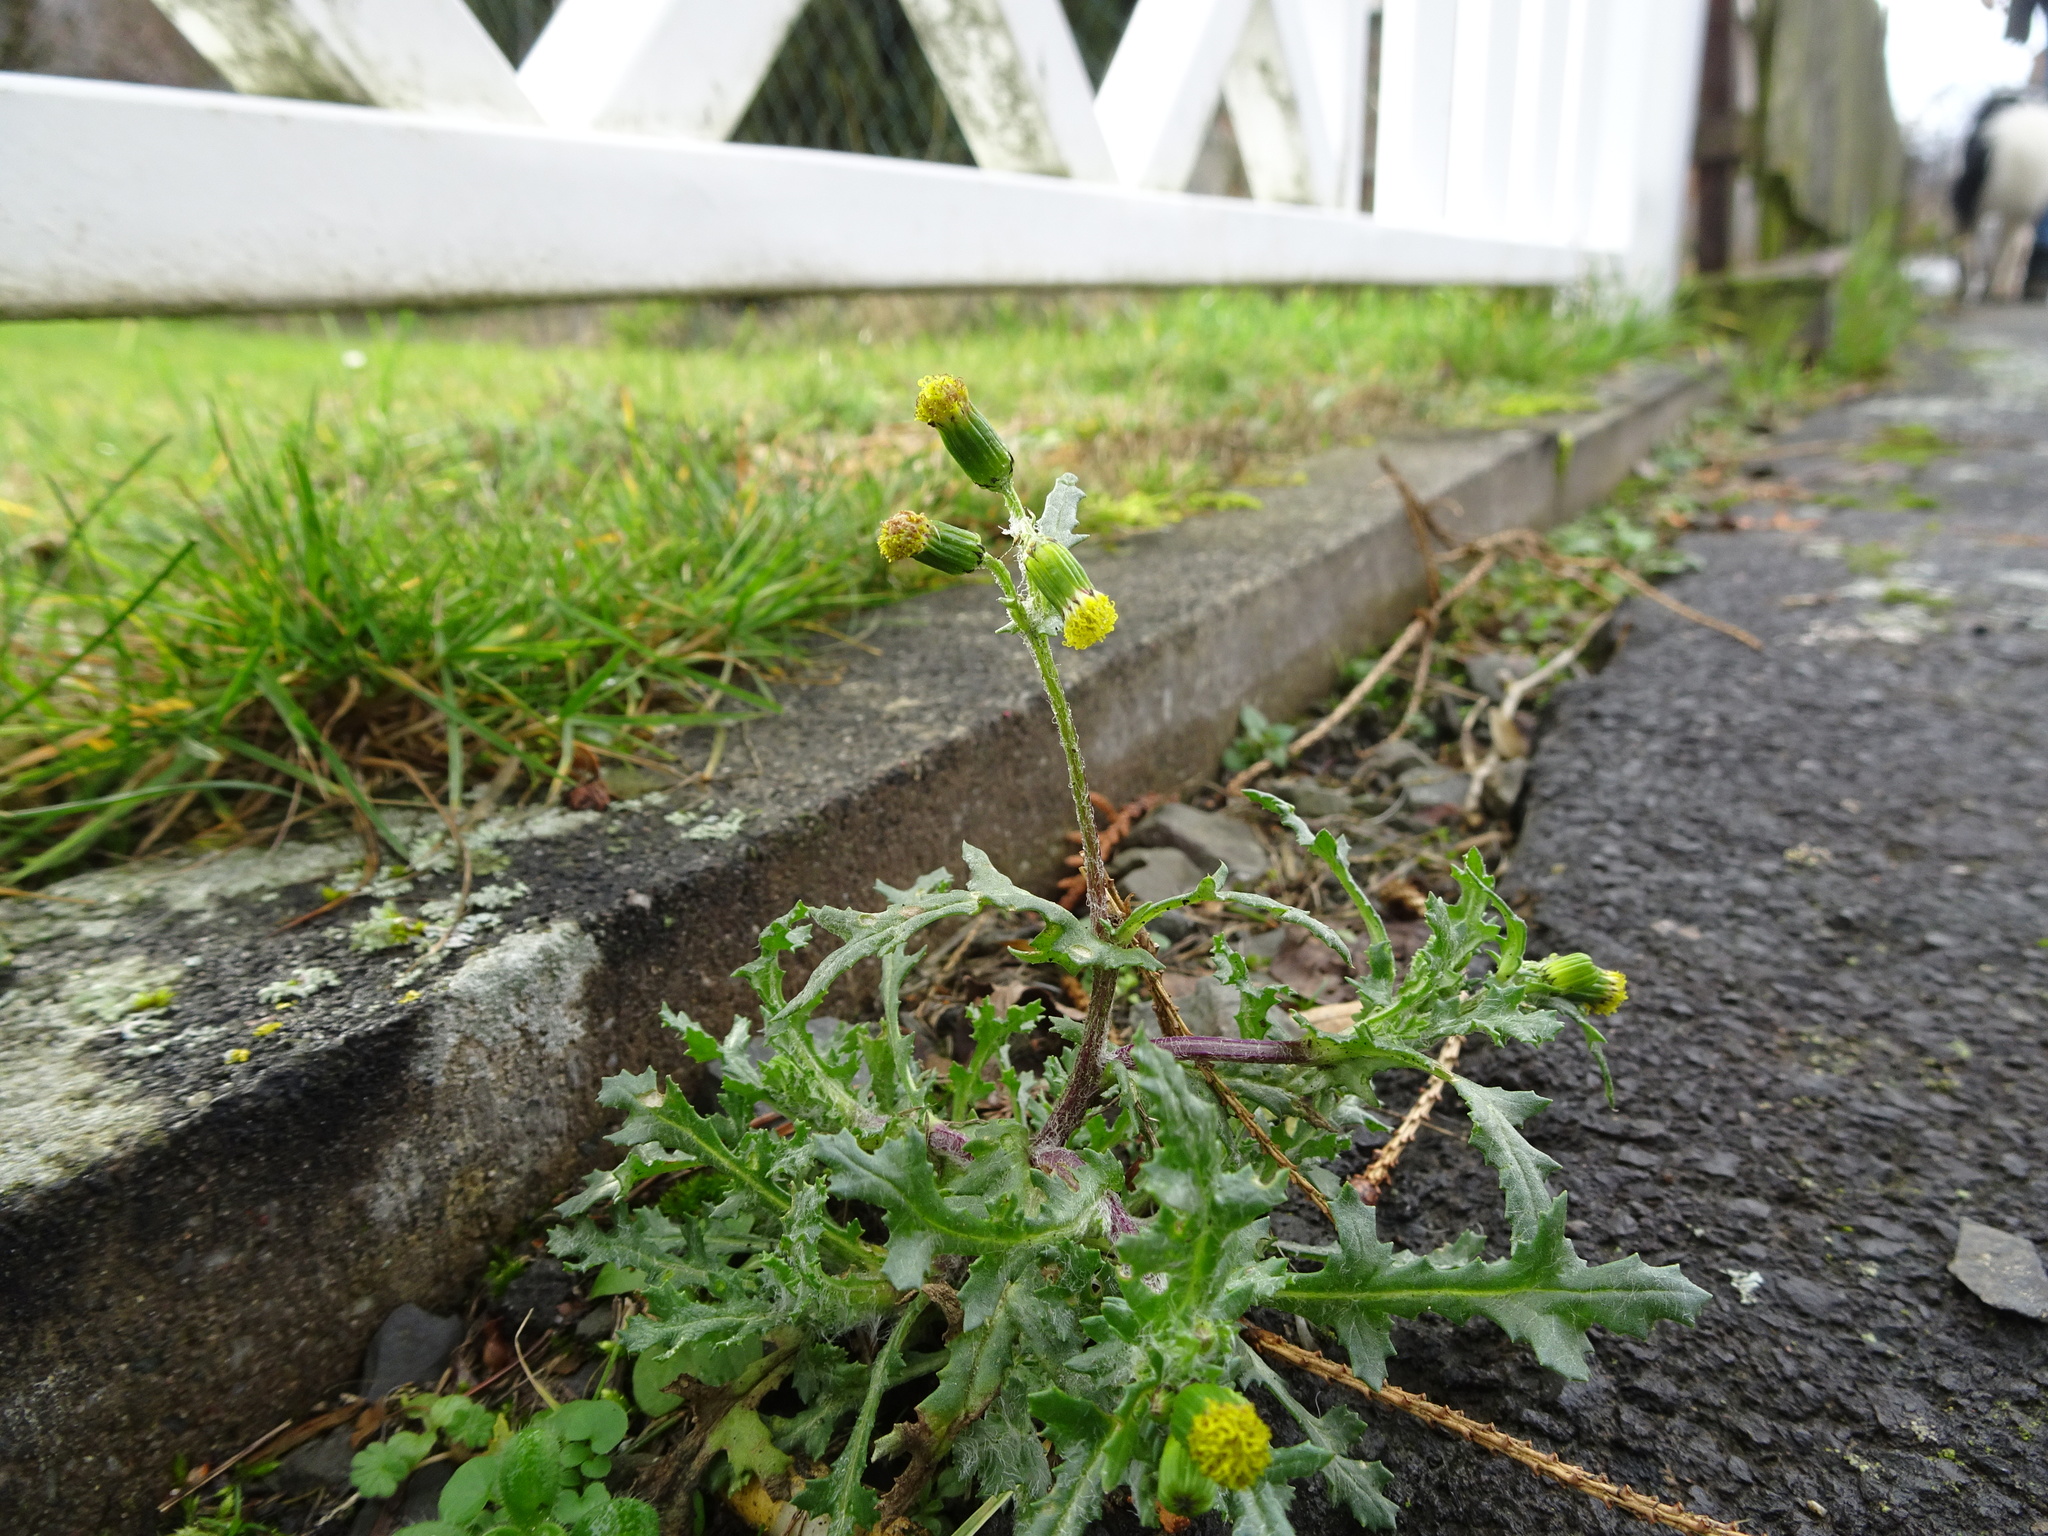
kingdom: Plantae
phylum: Tracheophyta
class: Magnoliopsida
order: Asterales
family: Asteraceae
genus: Senecio
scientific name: Senecio vulgaris
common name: Old-man-in-the-spring
